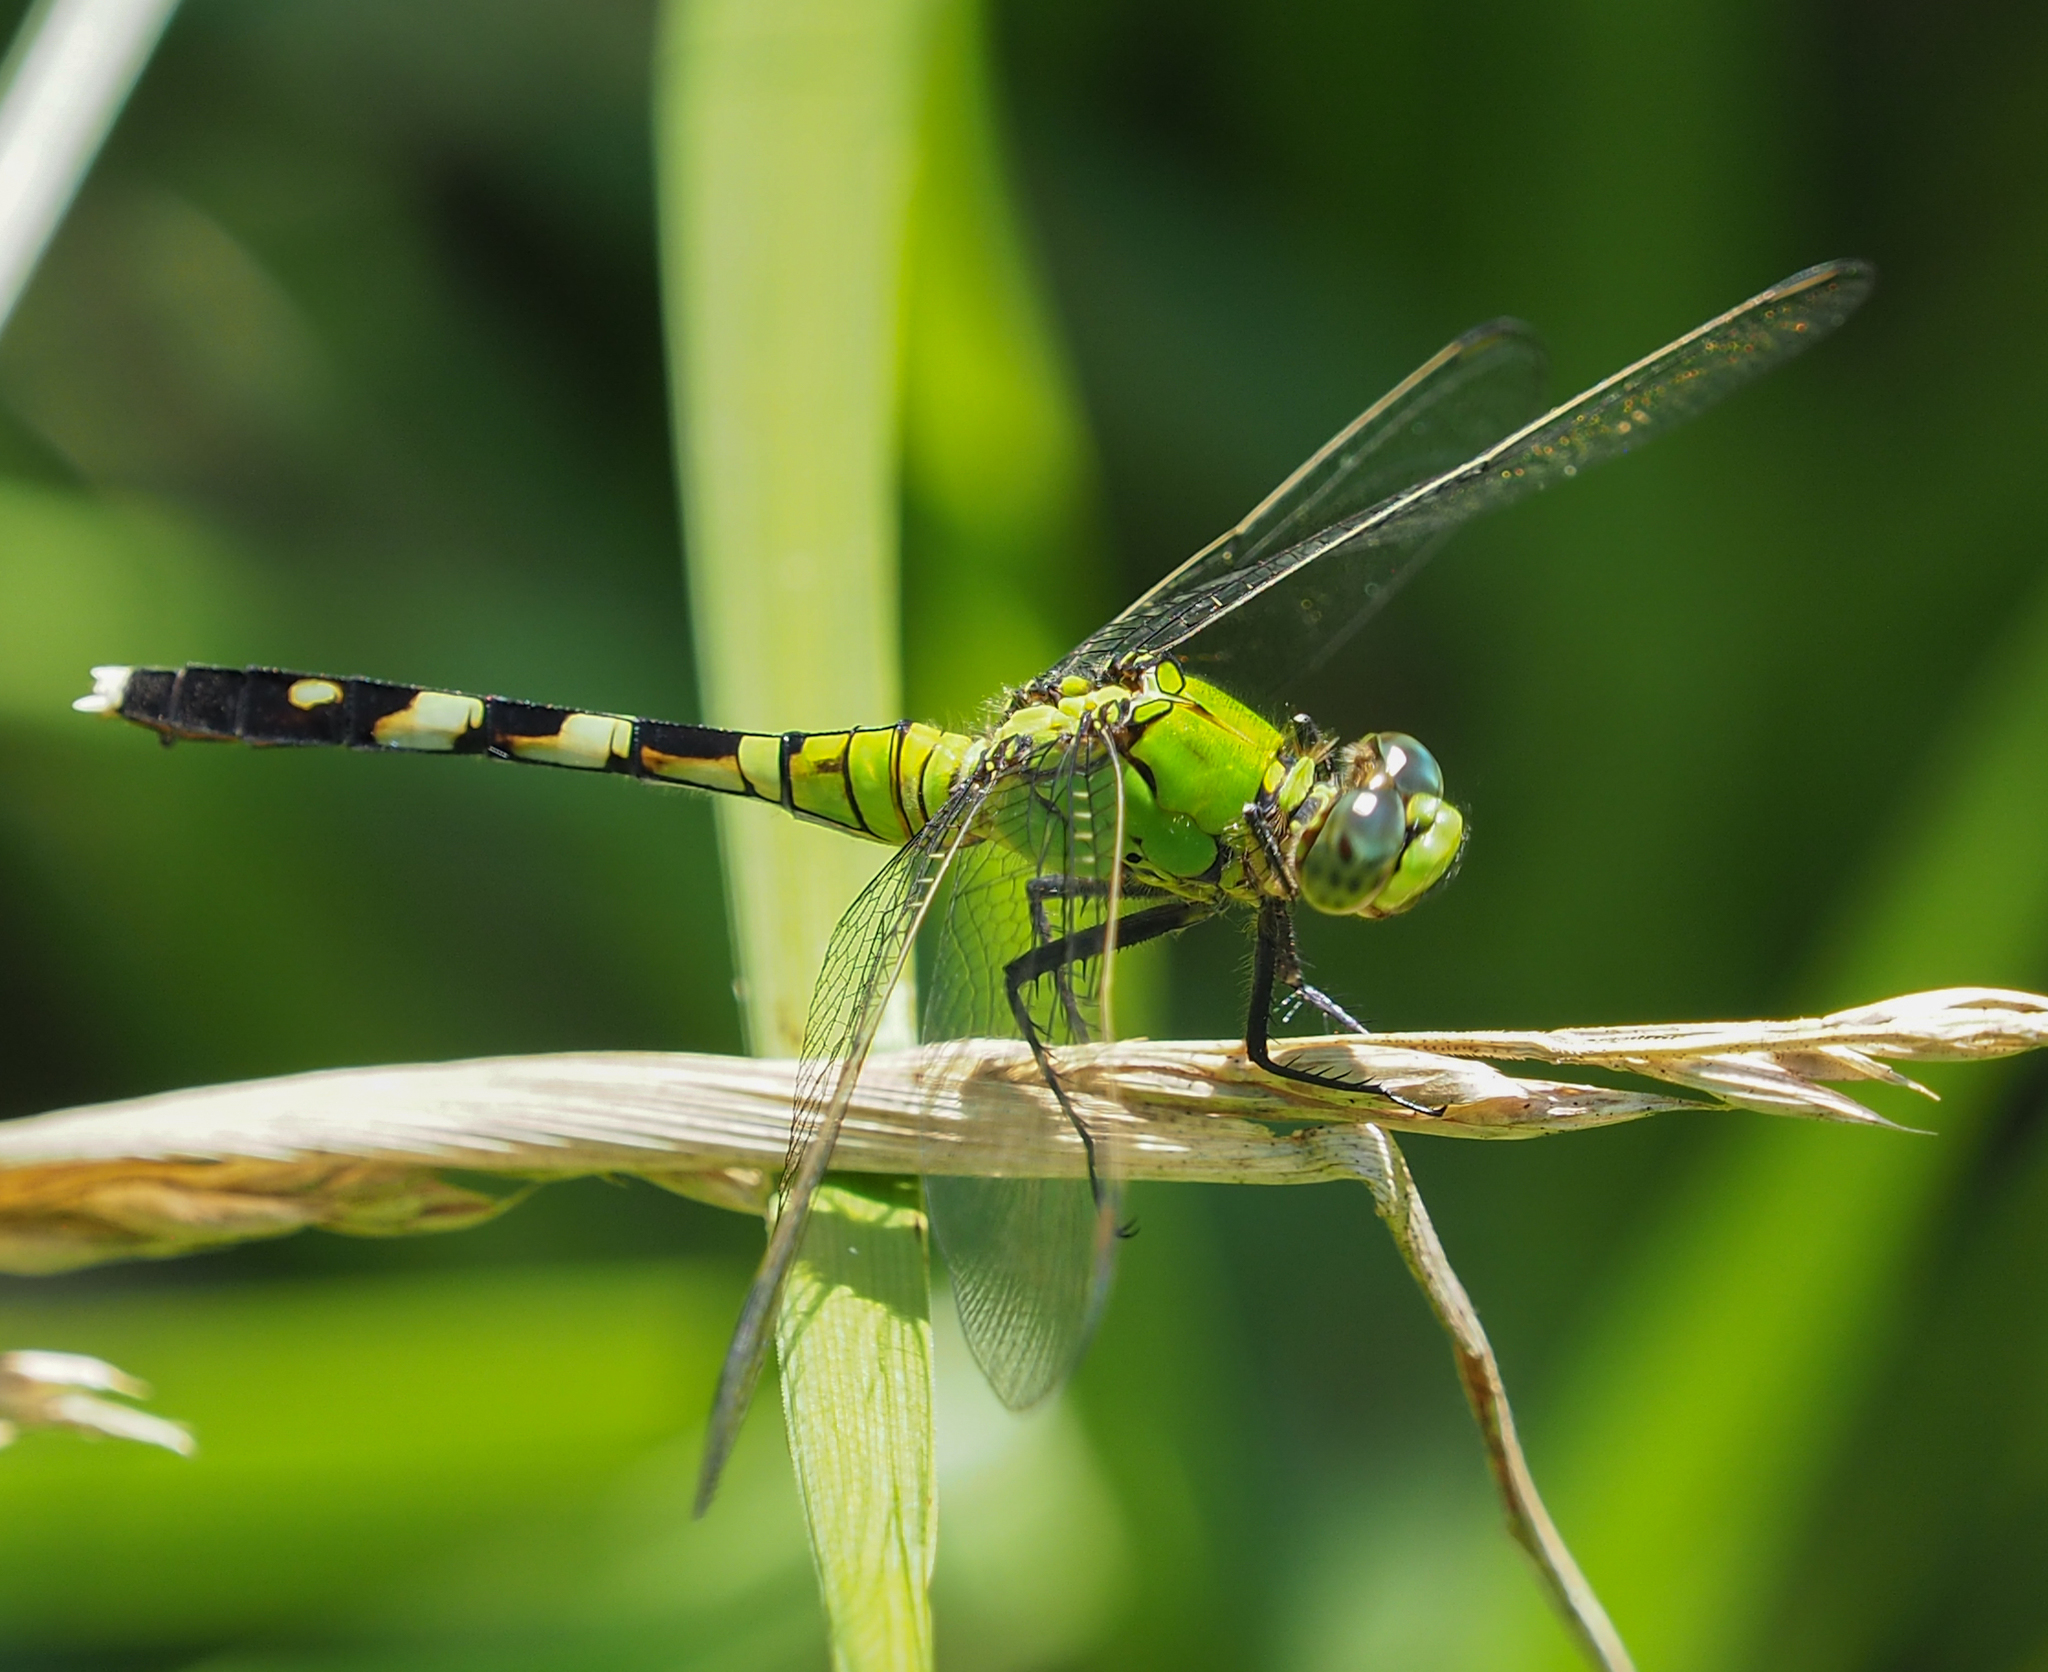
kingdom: Animalia
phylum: Arthropoda
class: Insecta
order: Odonata
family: Libellulidae
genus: Erythemis
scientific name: Erythemis simplicicollis
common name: Eastern pondhawk
